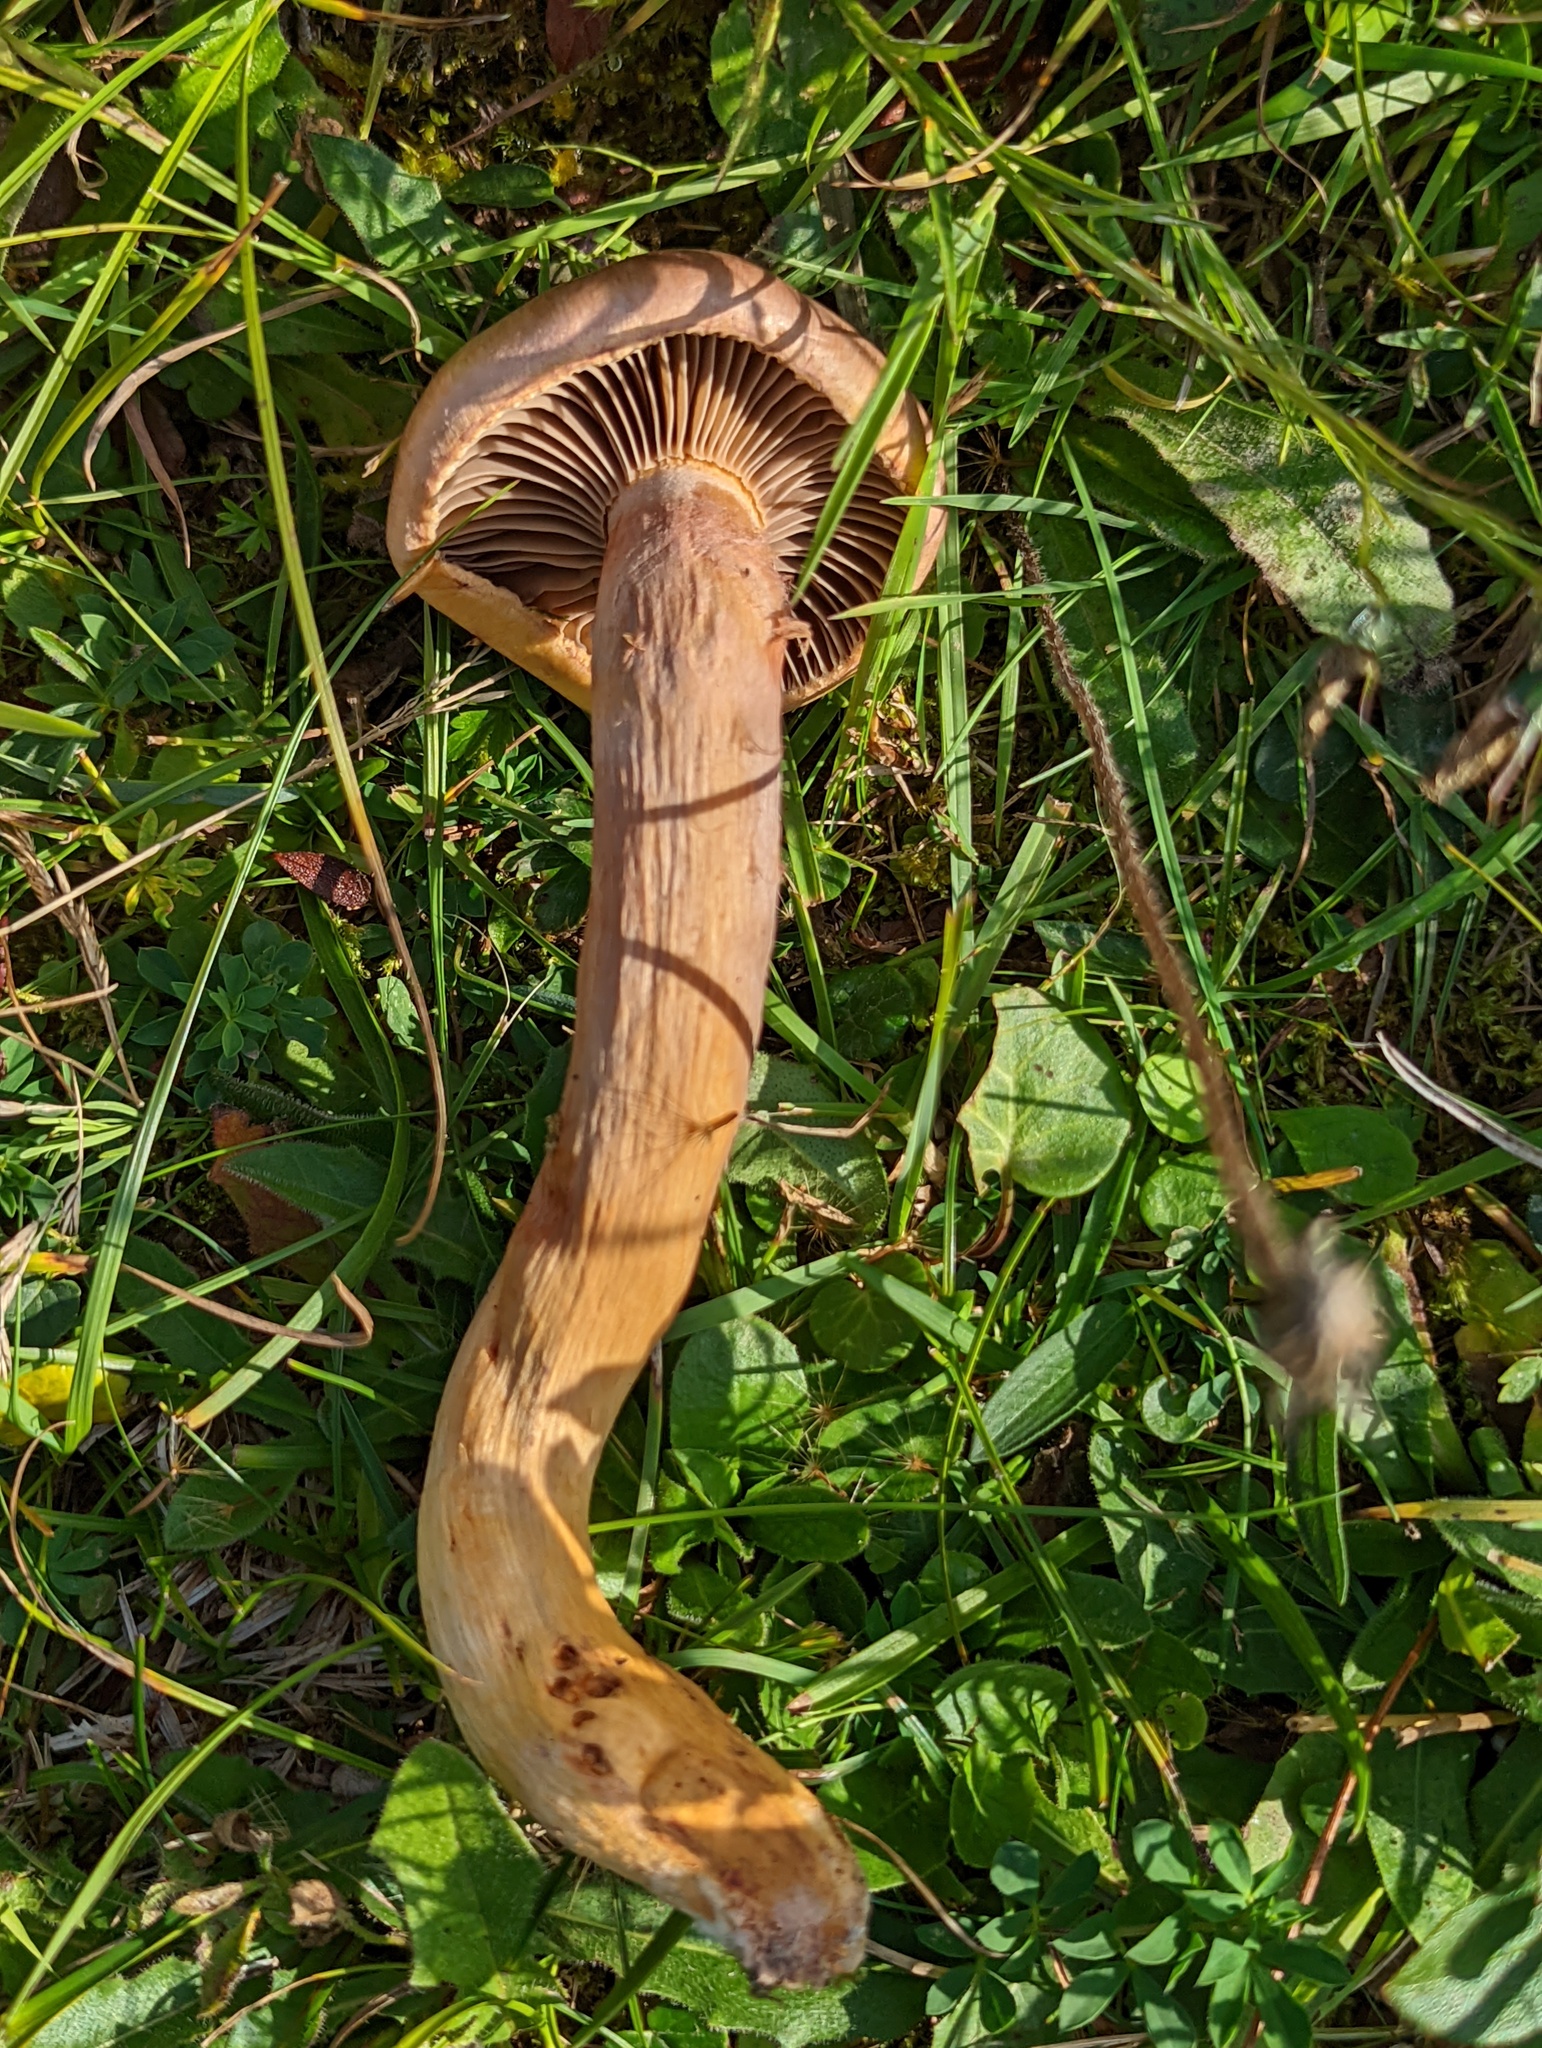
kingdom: Fungi
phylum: Basidiomycota
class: Agaricomycetes
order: Boletales
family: Gomphidiaceae
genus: Chroogomphus
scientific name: Chroogomphus rutilus
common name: Copper spike
